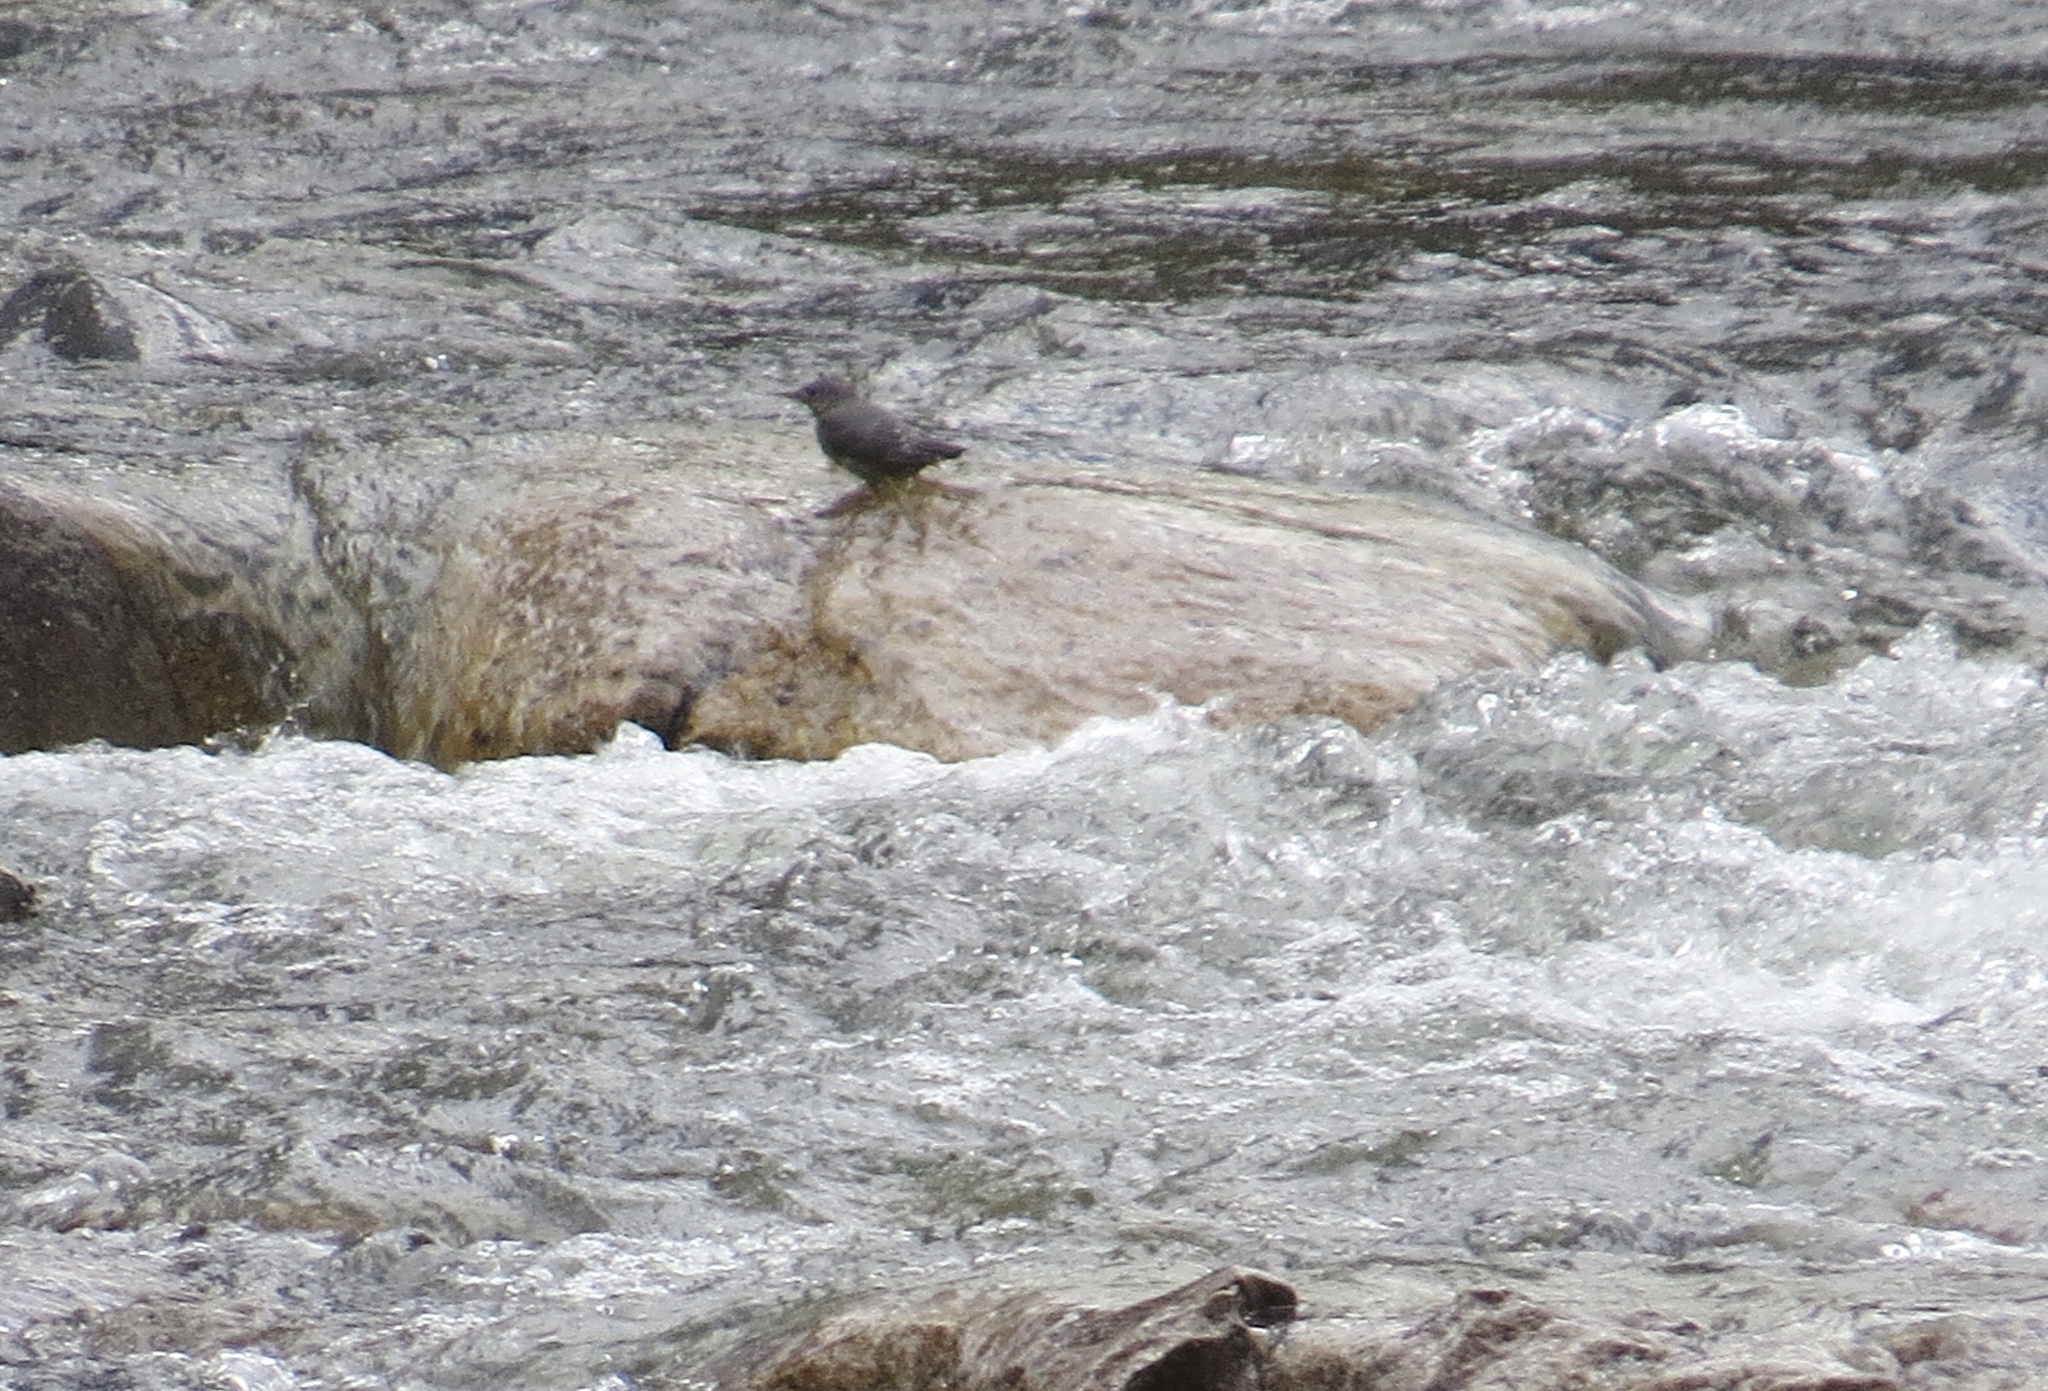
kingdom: Animalia
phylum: Chordata
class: Aves
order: Passeriformes
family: Cinclidae
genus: Cinclus
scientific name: Cinclus mexicanus
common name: American dipper
